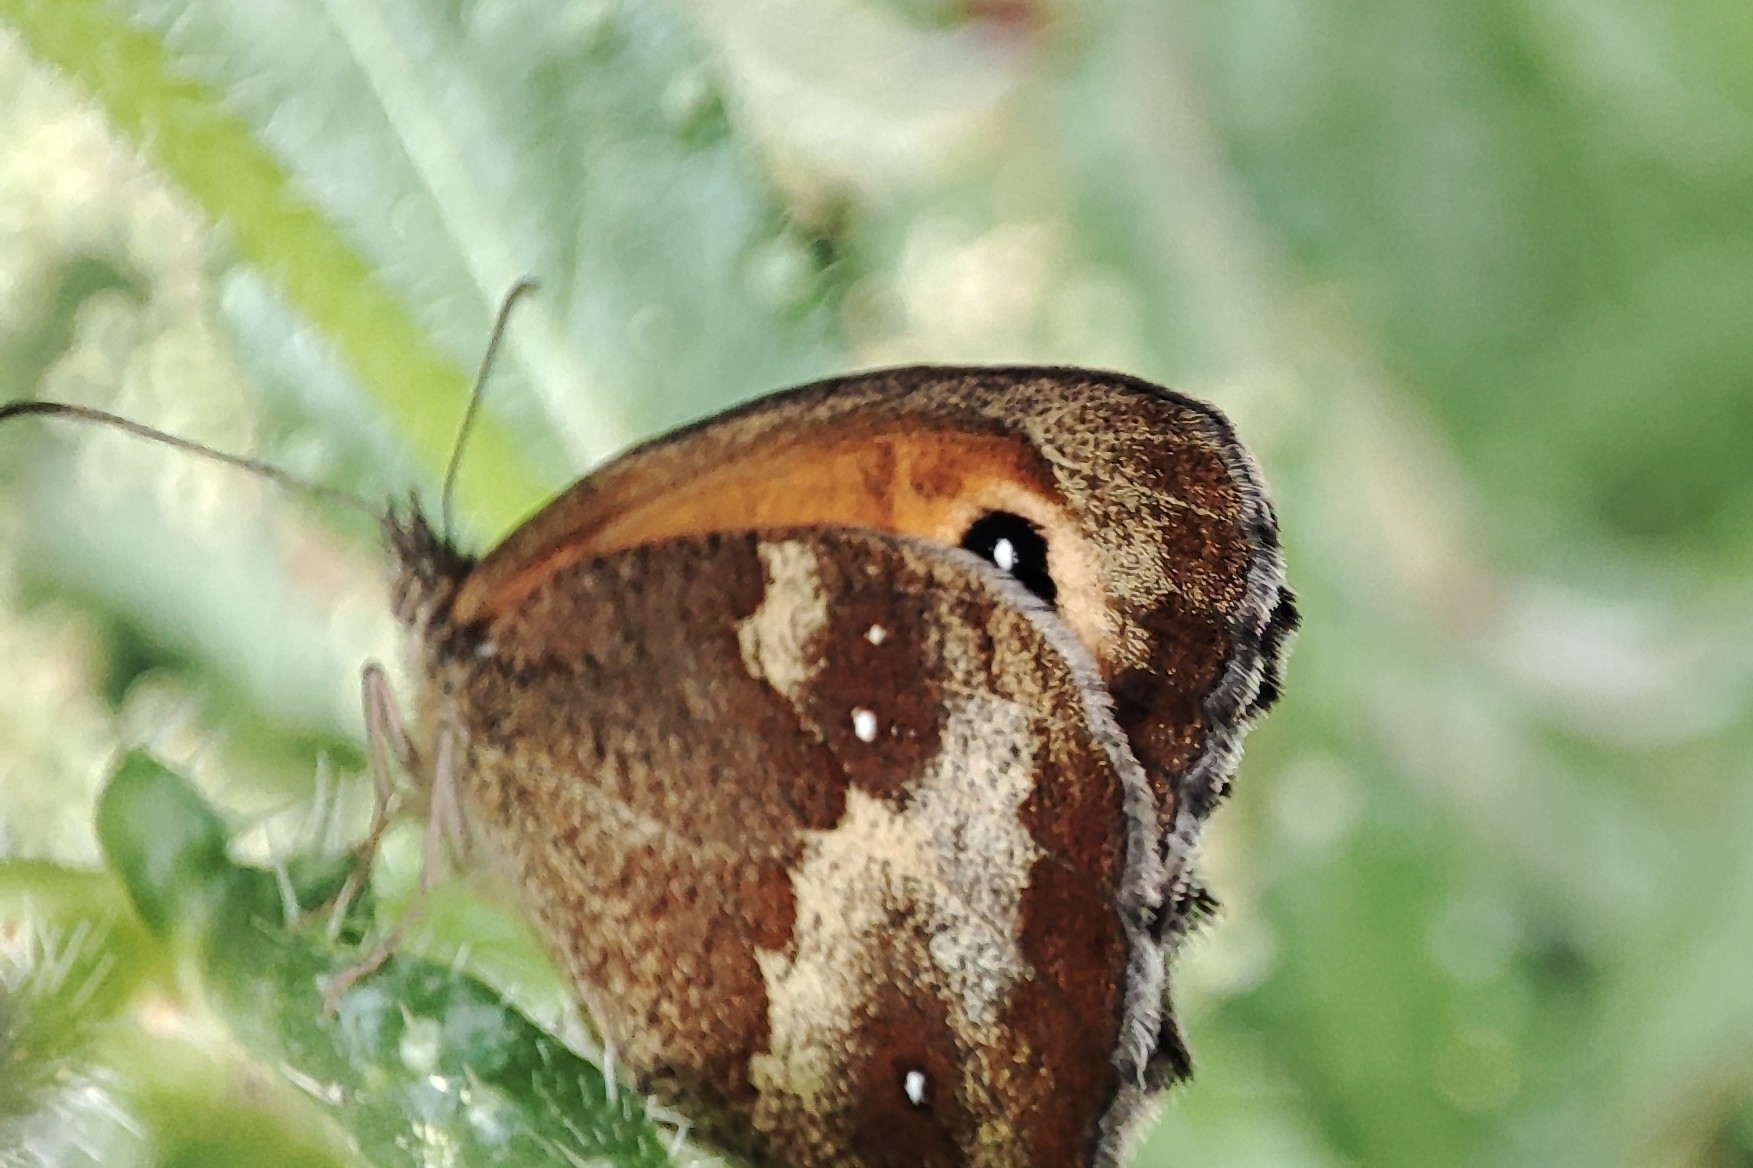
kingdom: Animalia
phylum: Arthropoda
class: Insecta
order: Lepidoptera
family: Nymphalidae
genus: Pyronia
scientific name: Pyronia tithonus
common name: Gatekeeper
